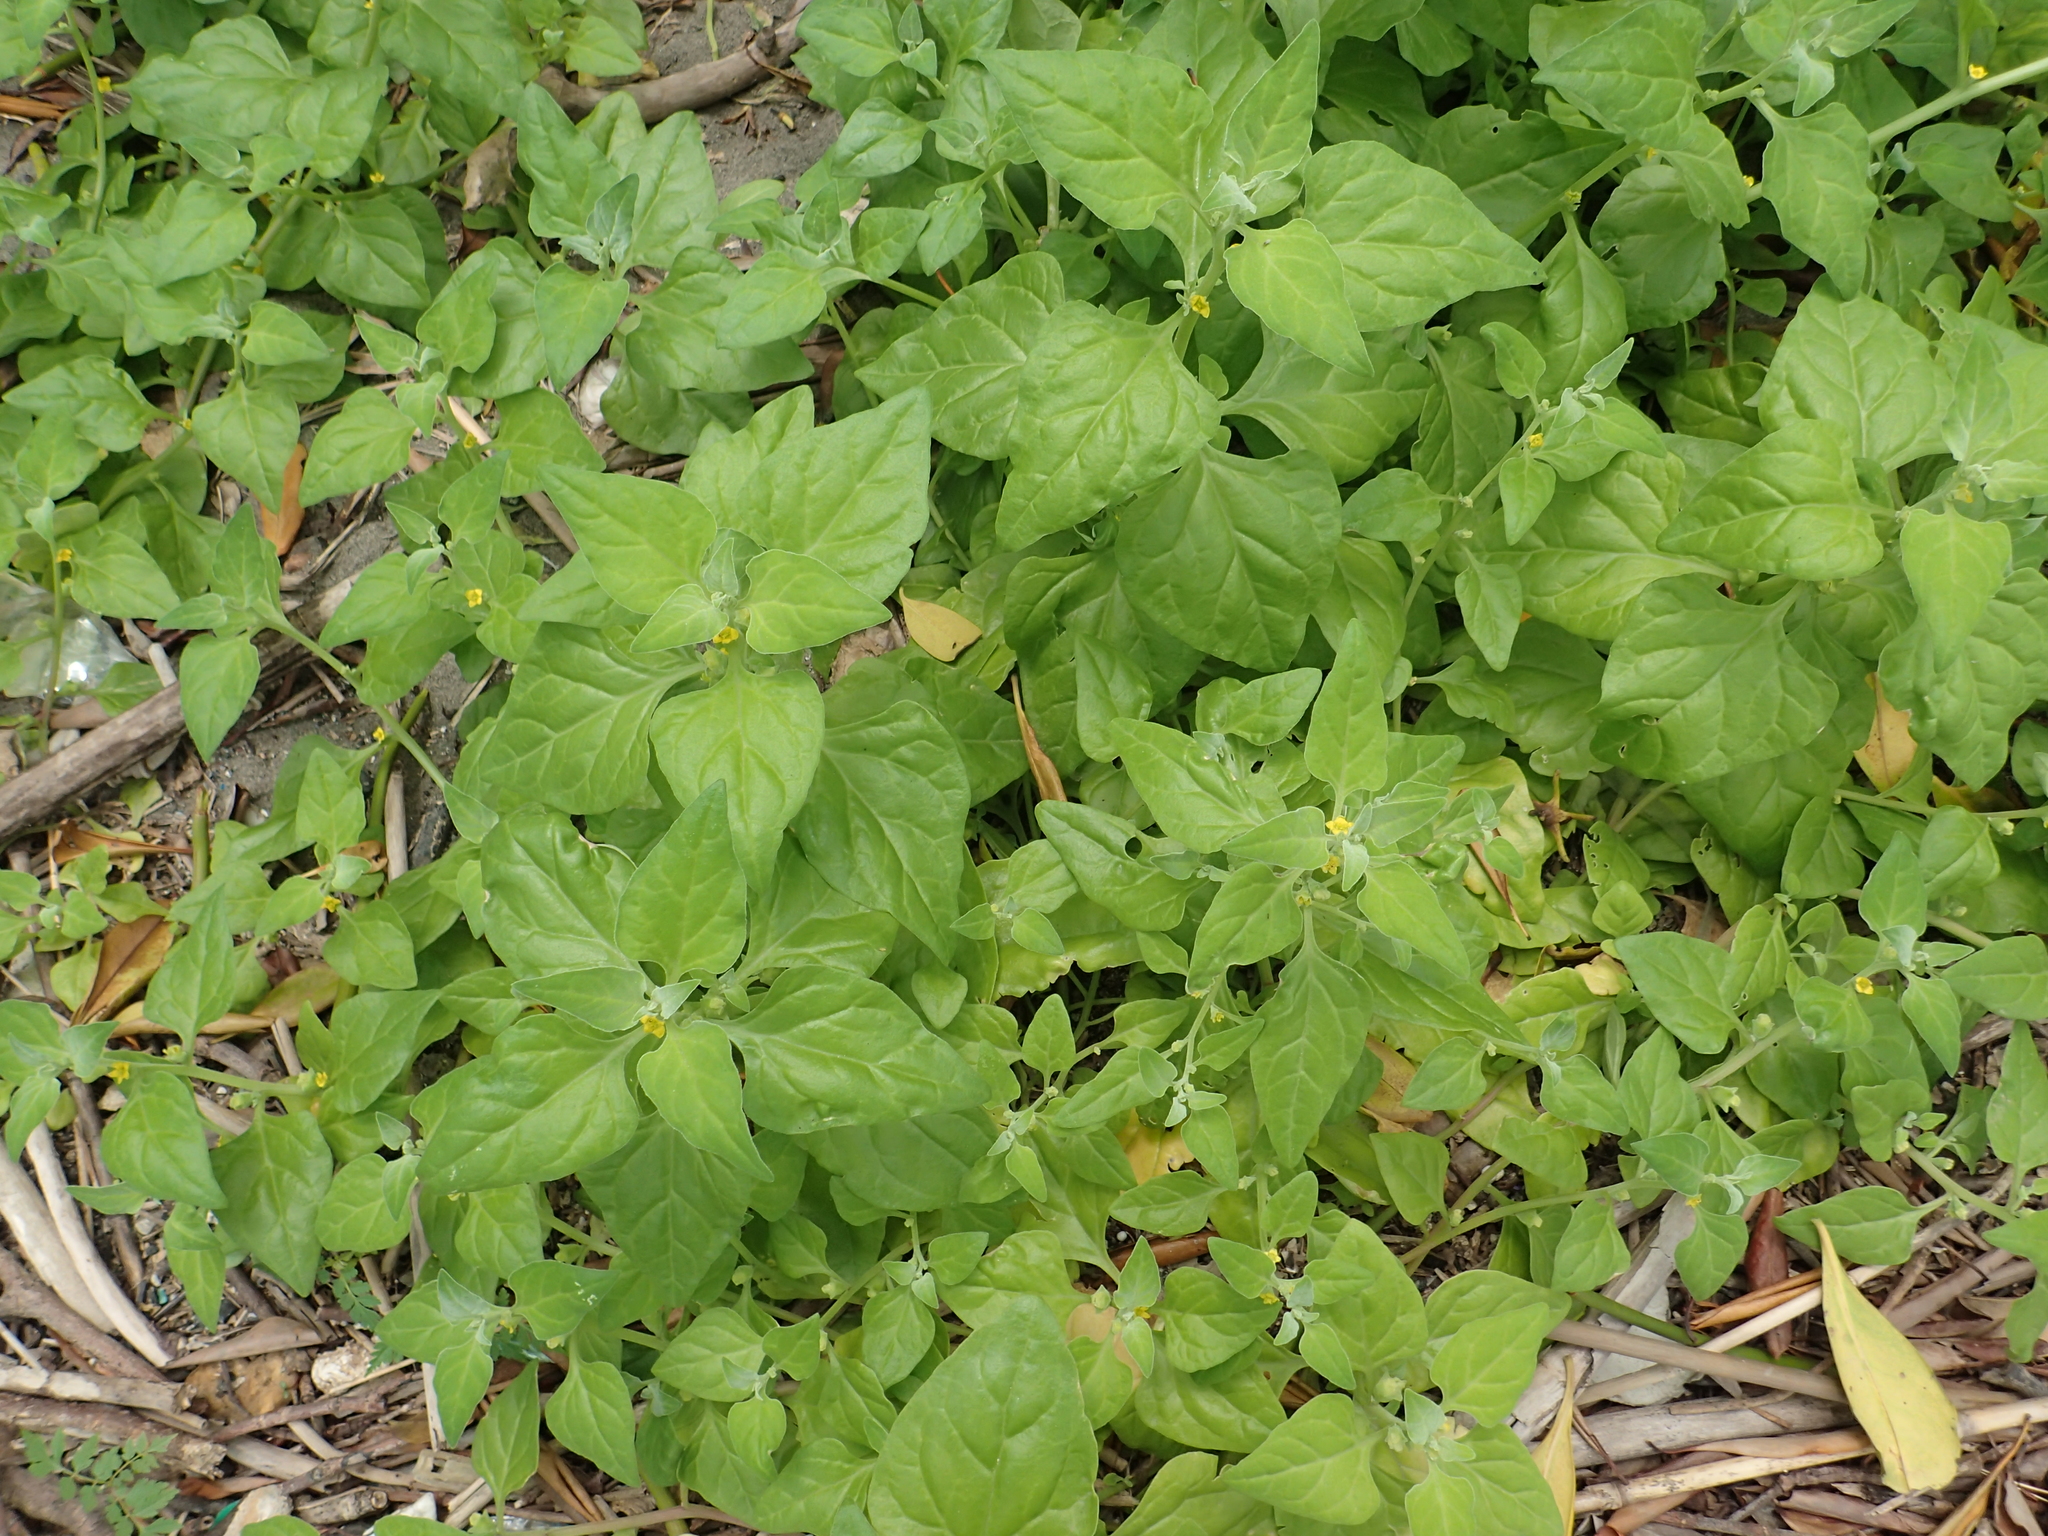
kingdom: Plantae
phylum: Tracheophyta
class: Magnoliopsida
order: Caryophyllales
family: Aizoaceae
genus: Tetragonia
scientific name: Tetragonia tetragonoides
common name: New zealand-spinach
